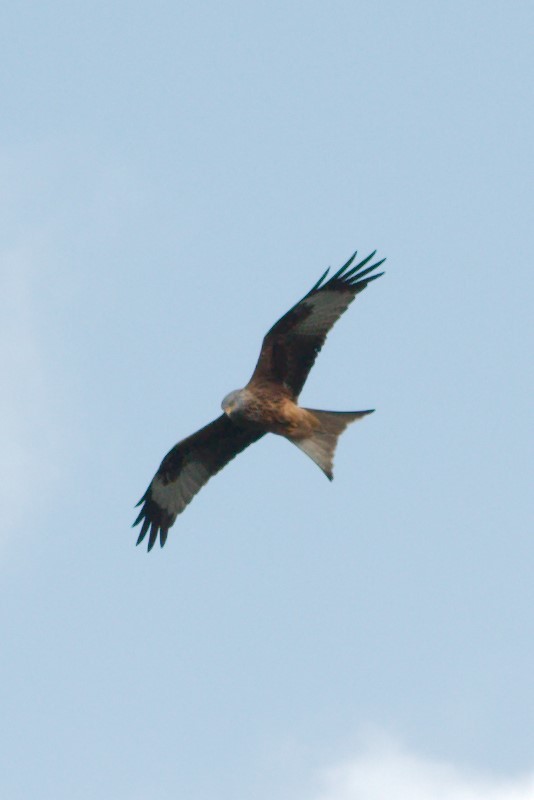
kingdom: Animalia
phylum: Chordata
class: Aves
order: Accipitriformes
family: Accipitridae
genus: Milvus
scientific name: Milvus milvus
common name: Red kite
